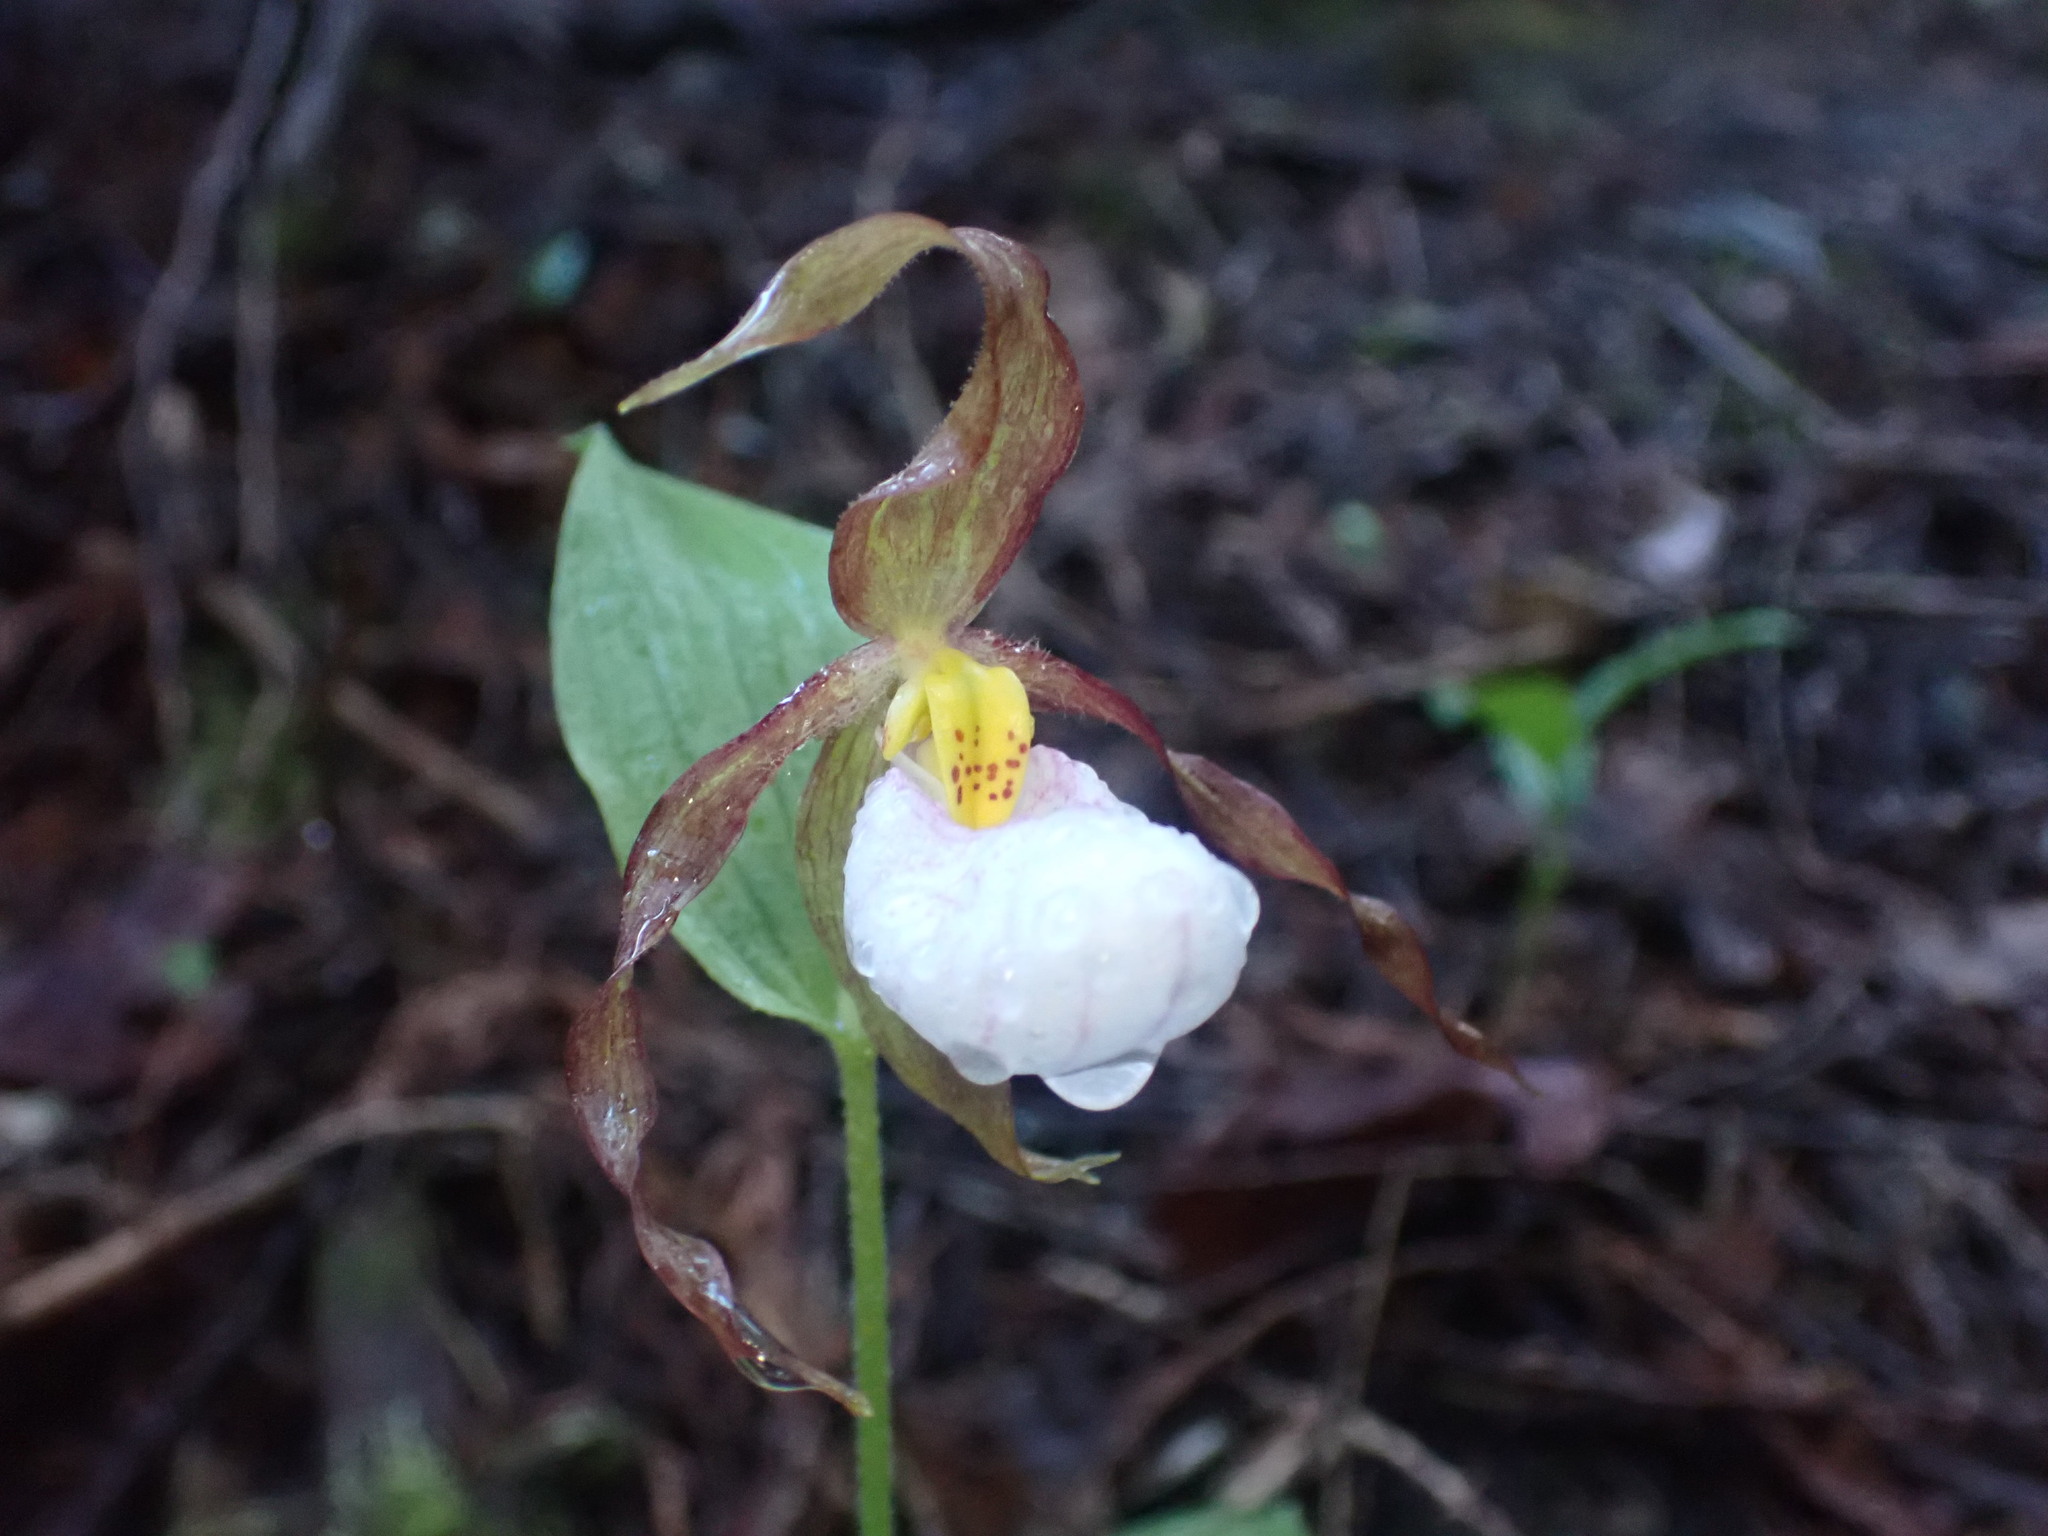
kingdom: Plantae
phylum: Tracheophyta
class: Liliopsida
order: Asparagales
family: Orchidaceae
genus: Cypripedium
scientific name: Cypripedium montanum
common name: Mountain lady's-slipper
